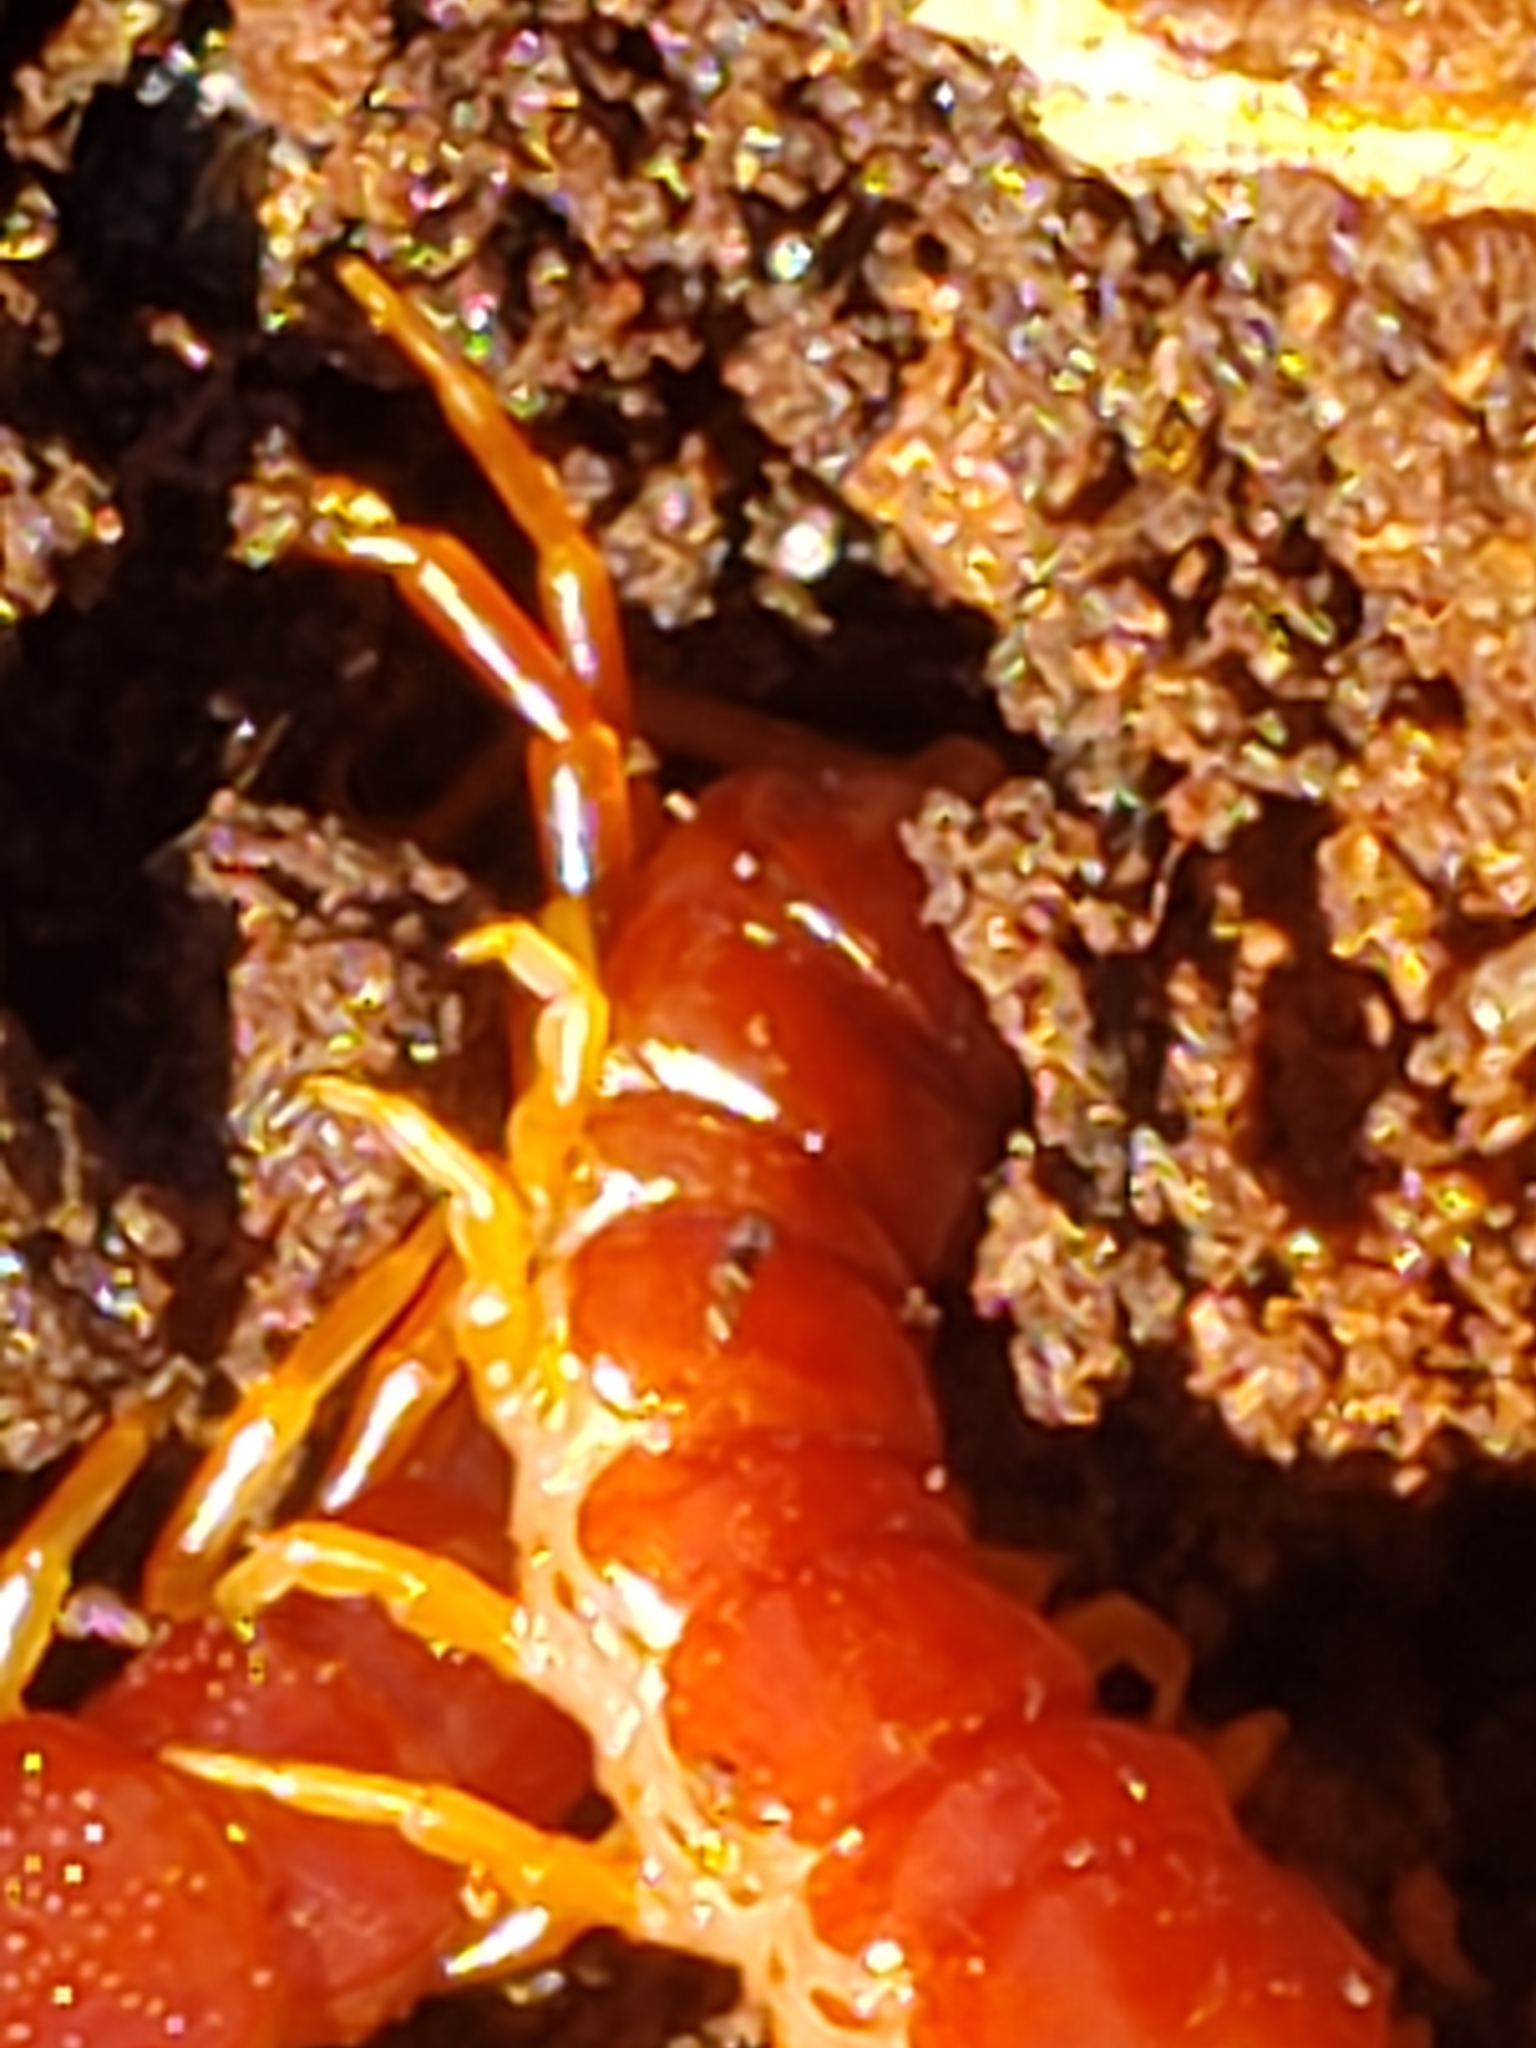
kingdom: Animalia
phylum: Arthropoda
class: Chilopoda
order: Scolopendromorpha
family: Scolopocryptopidae
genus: Scolopocryptops
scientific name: Scolopocryptops sexspinosus
